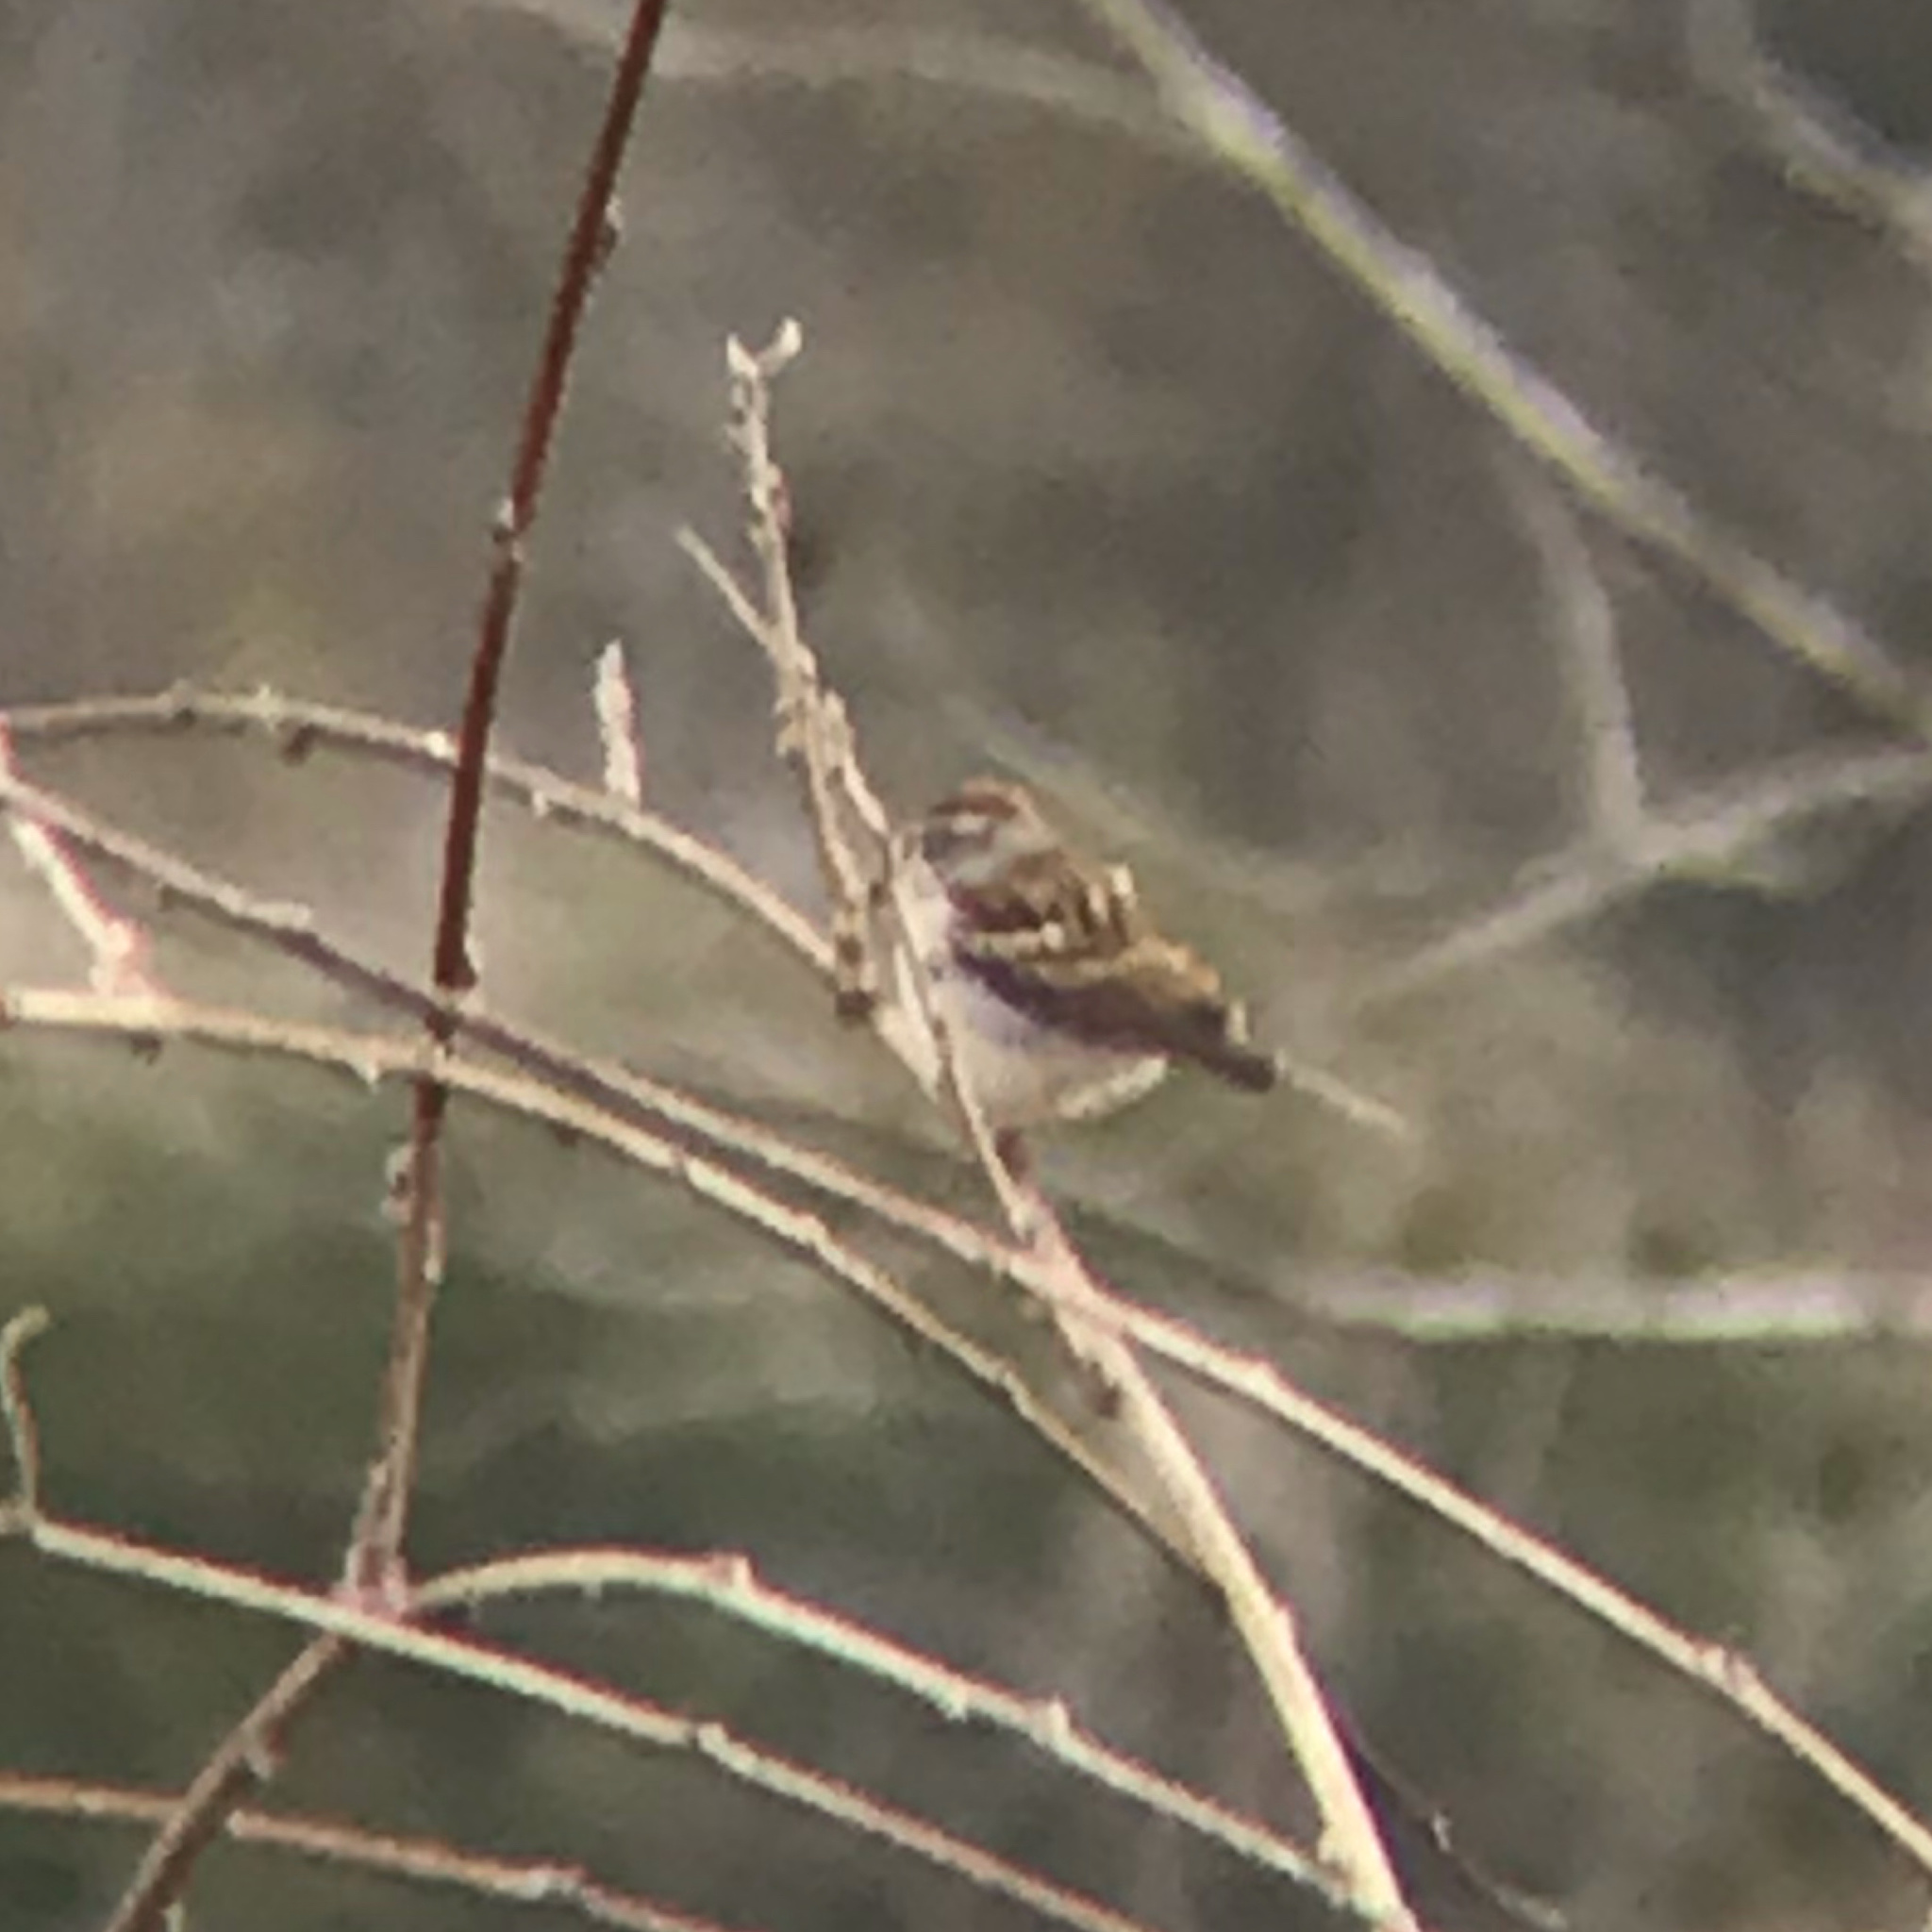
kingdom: Animalia
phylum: Chordata
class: Aves
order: Passeriformes
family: Passerellidae
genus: Spizella
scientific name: Spizella passerina
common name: Chipping sparrow
